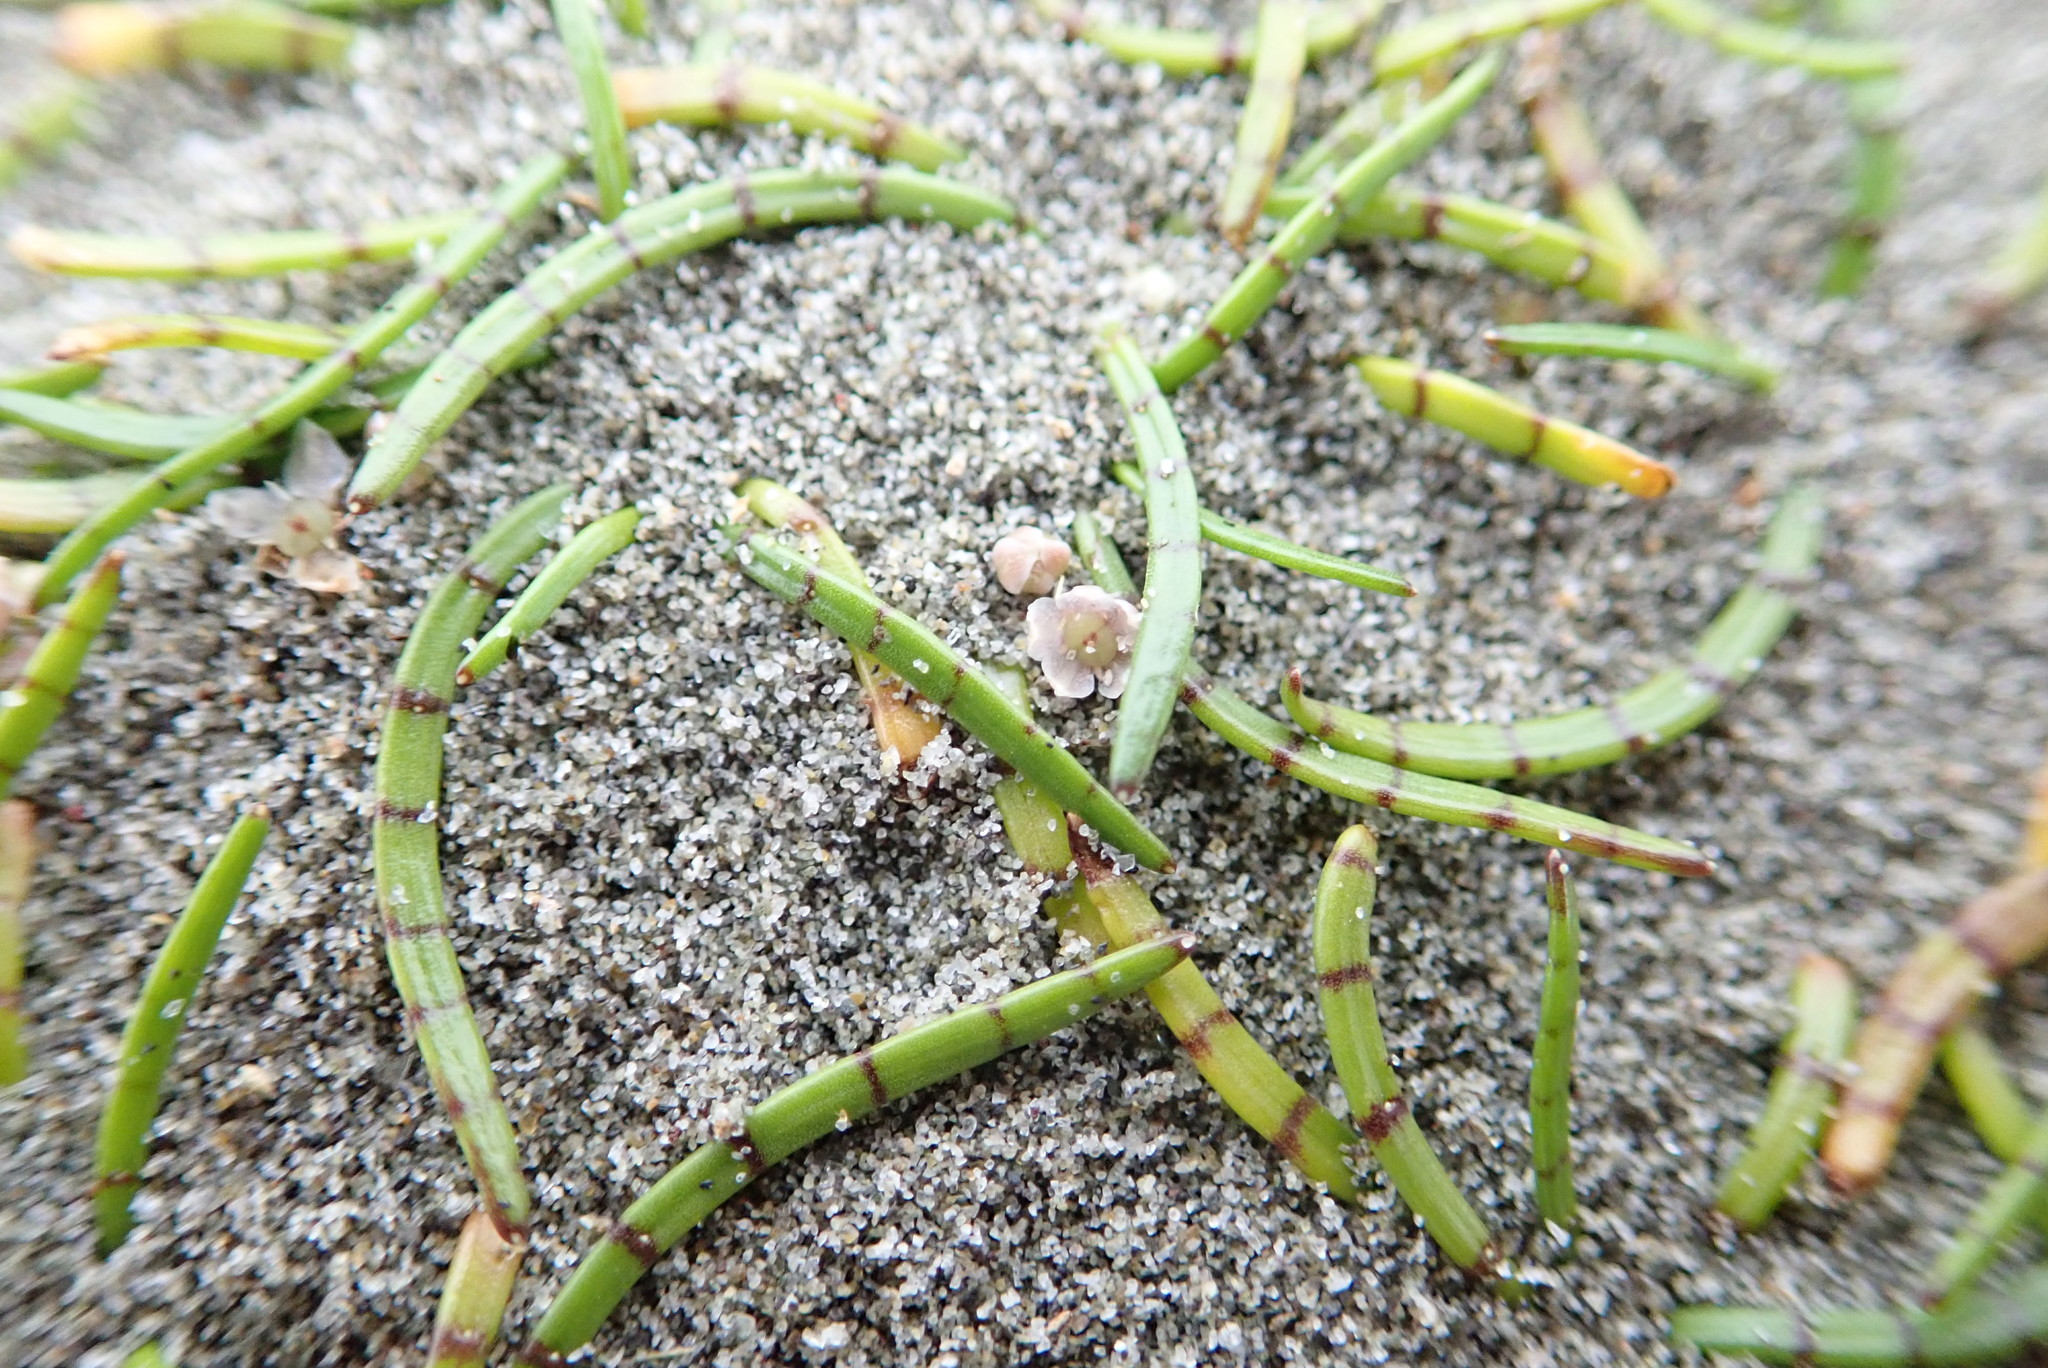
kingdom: Plantae
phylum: Tracheophyta
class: Magnoliopsida
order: Apiales
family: Apiaceae
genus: Lilaeopsis
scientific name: Lilaeopsis novae-zelandiae
